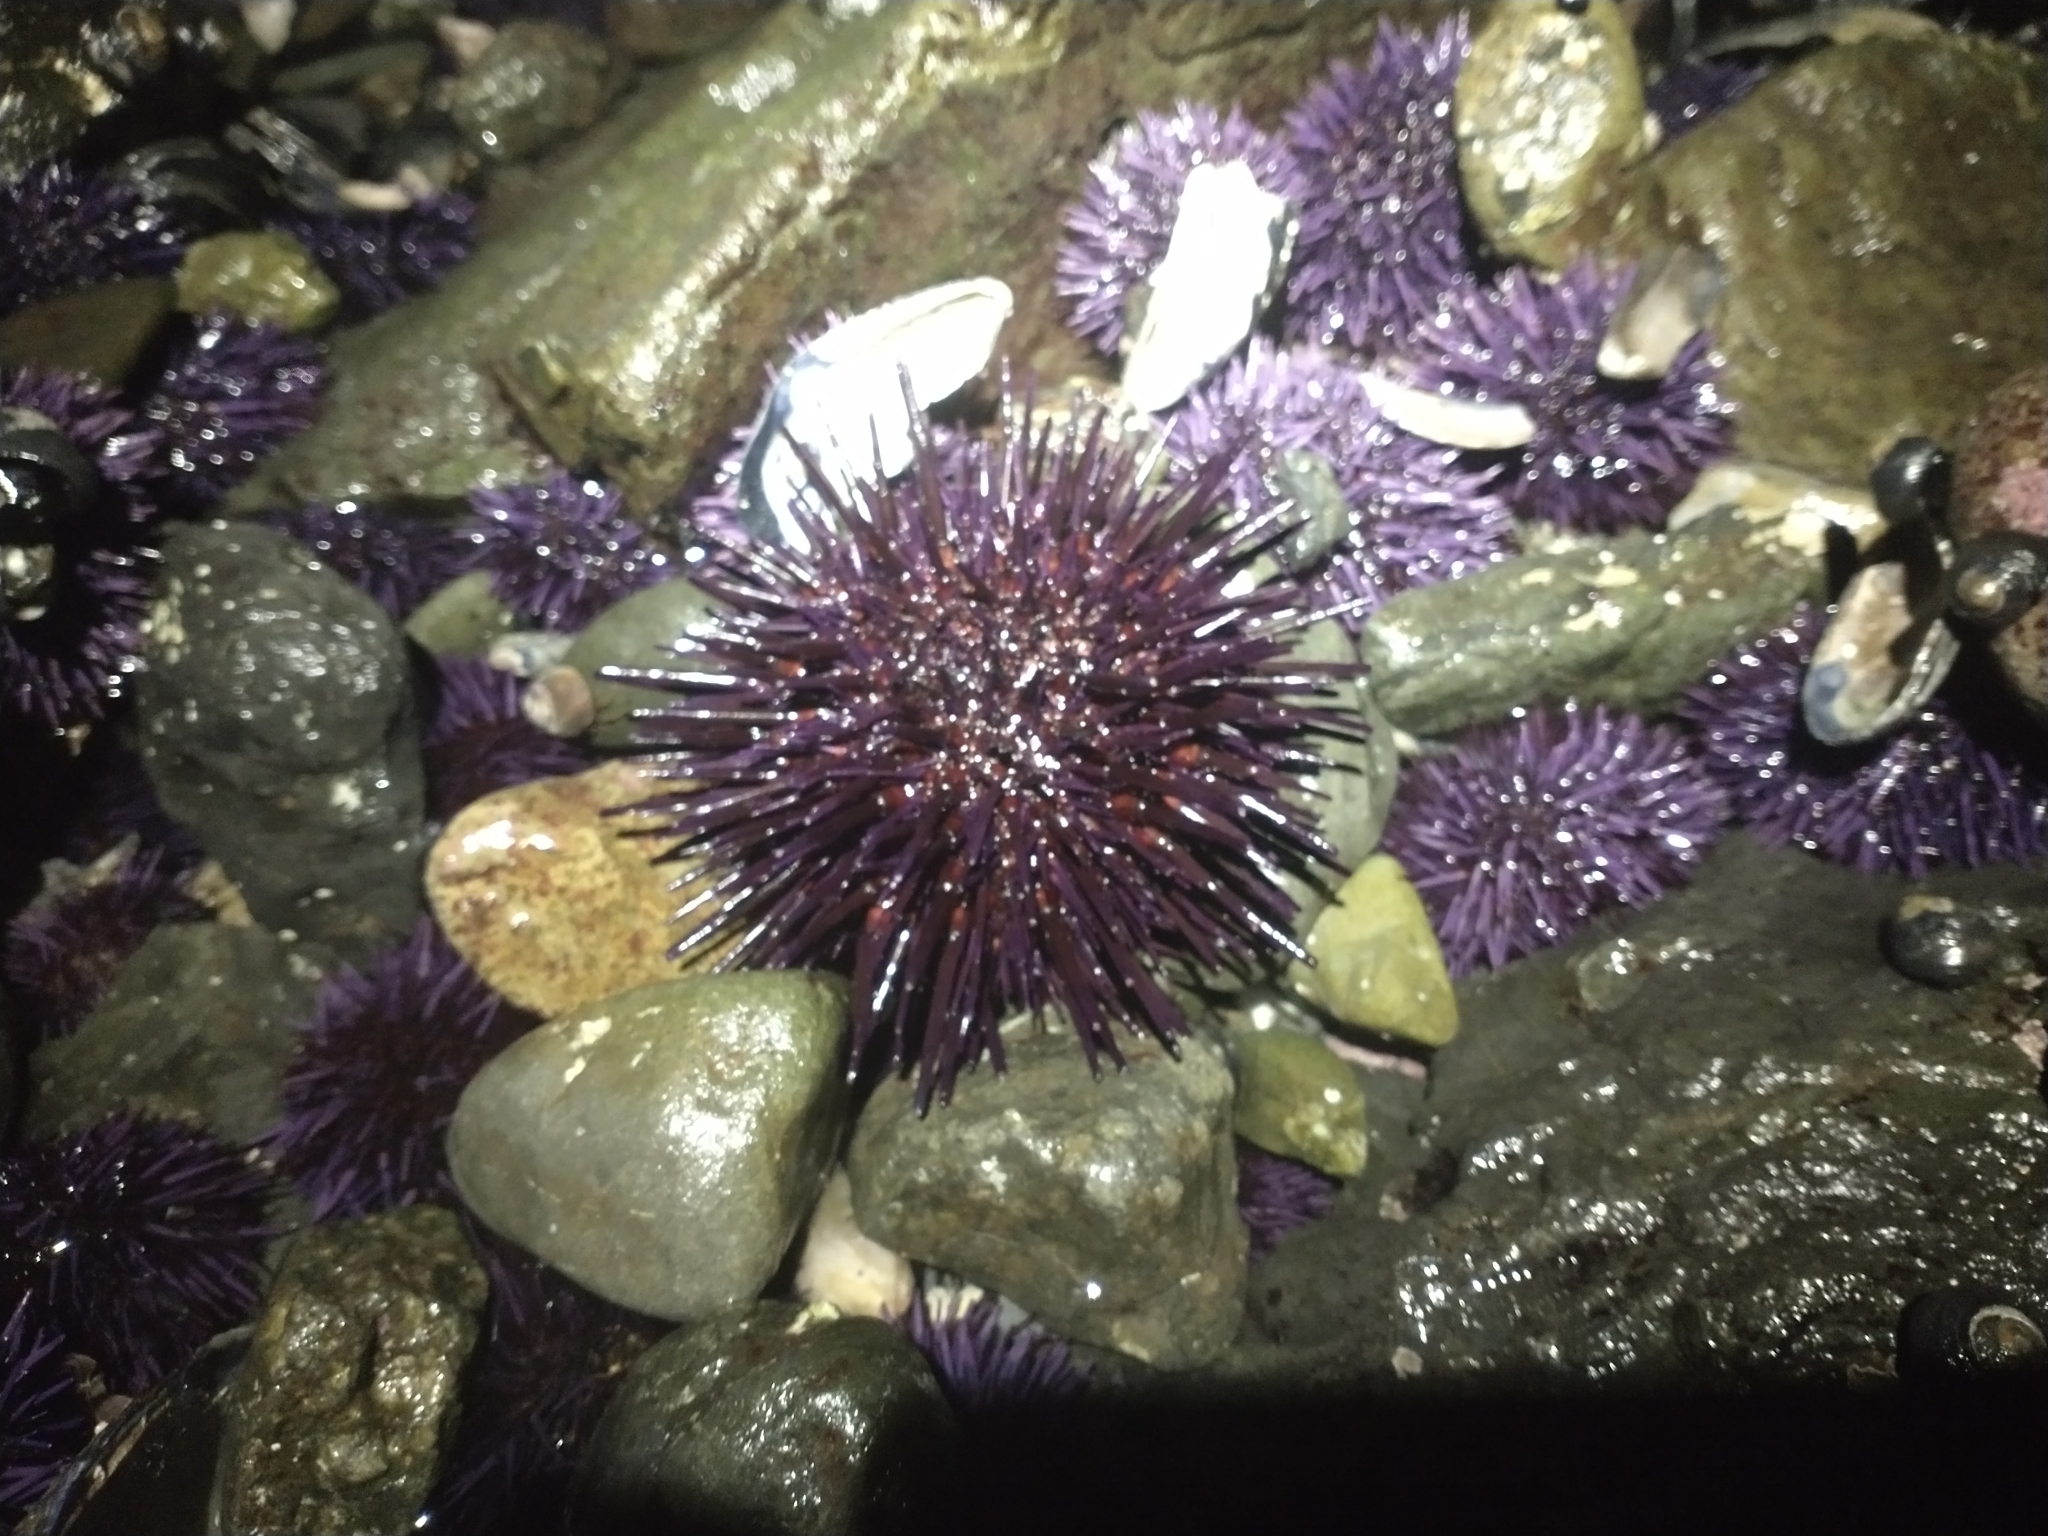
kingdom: Animalia
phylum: Echinodermata
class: Echinoidea
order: Camarodonta
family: Strongylocentrotidae
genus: Mesocentrotus
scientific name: Mesocentrotus franciscanus
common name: Red sea urchin
